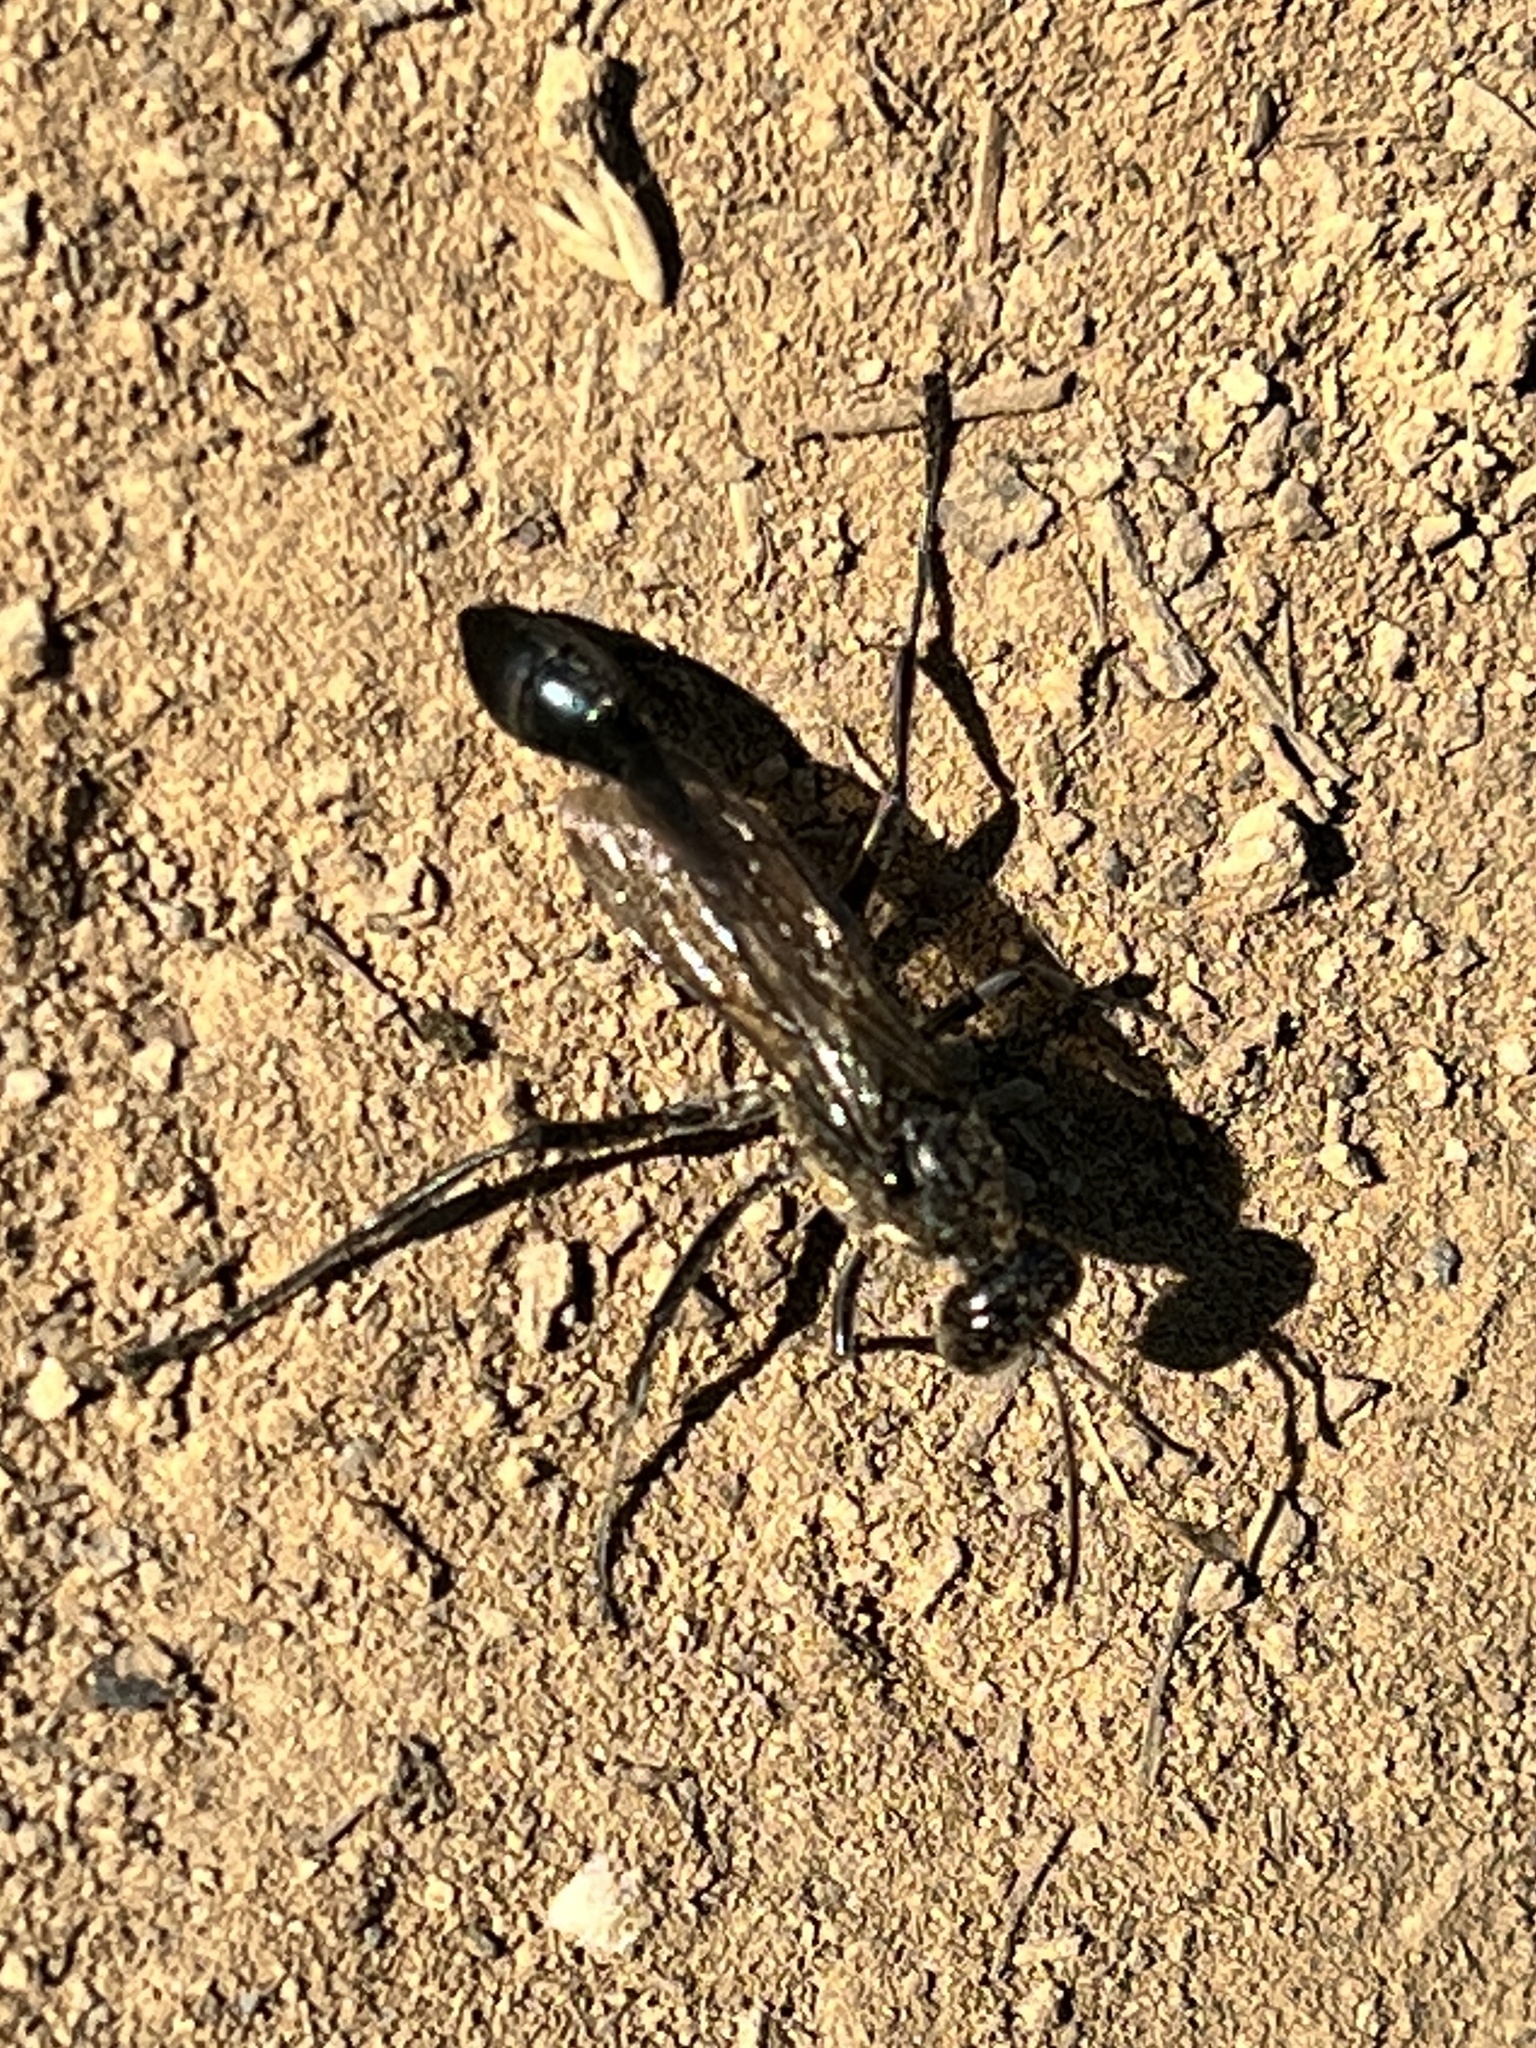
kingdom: Animalia
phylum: Arthropoda
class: Insecta
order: Hymenoptera
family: Sphecidae
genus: Eremnophila
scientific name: Eremnophila aureonotata
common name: Gold-marked thread-waisted wasp
